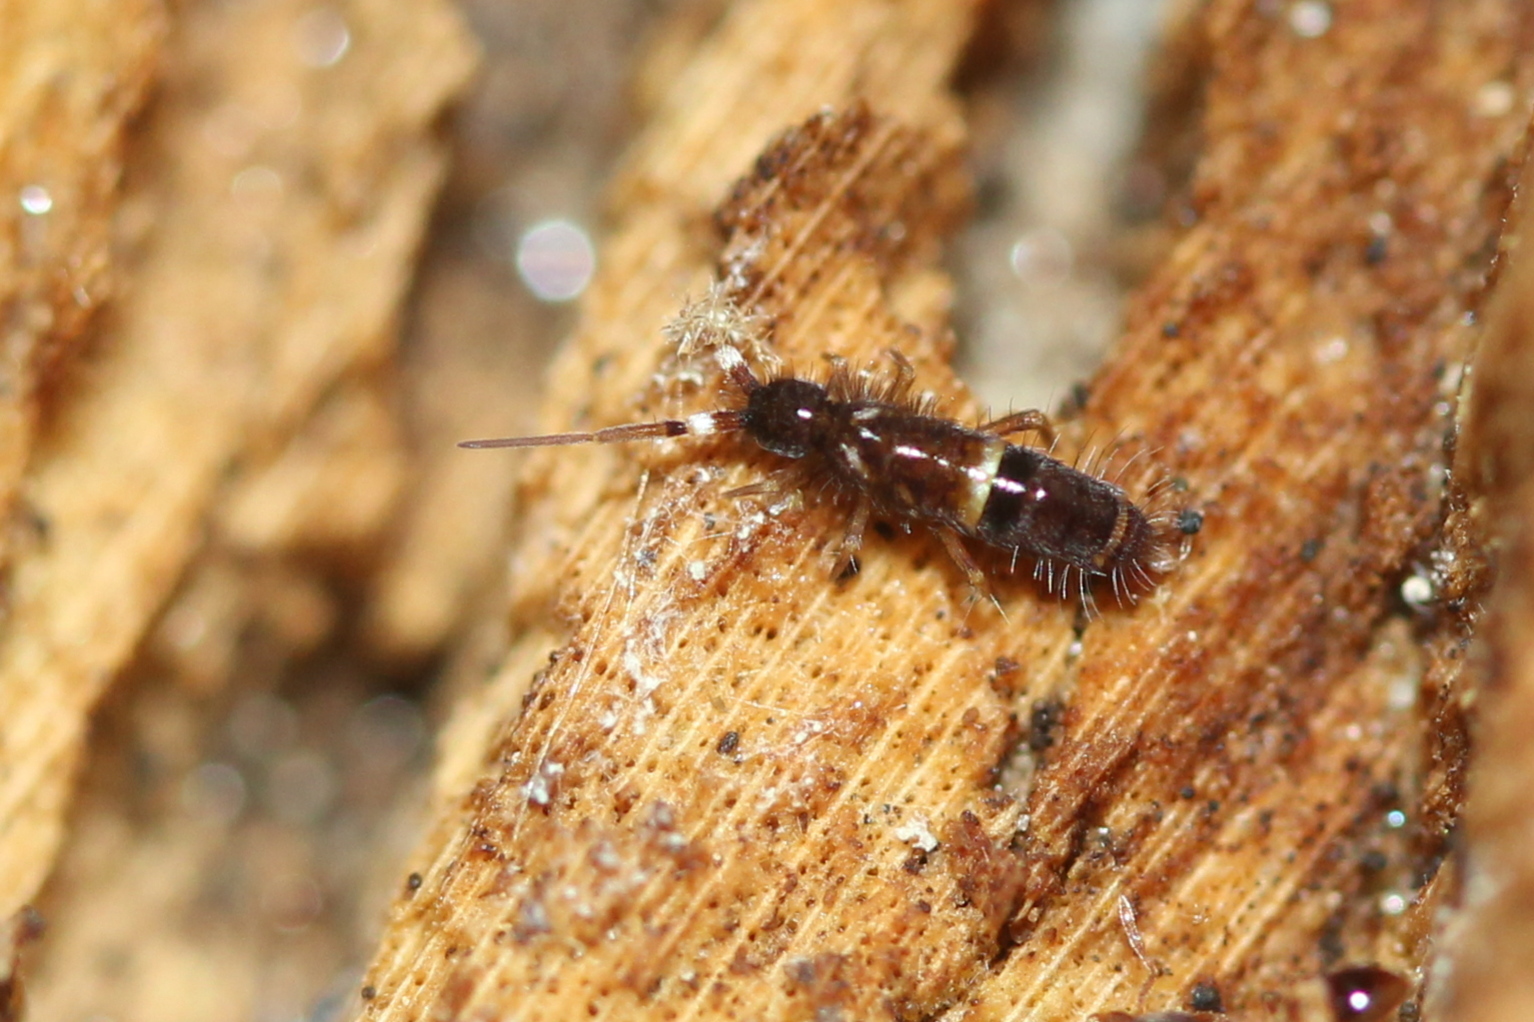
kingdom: Animalia
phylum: Arthropoda
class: Collembola
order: Entomobryomorpha
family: Orchesellidae
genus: Orchesella
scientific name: Orchesella cincta
